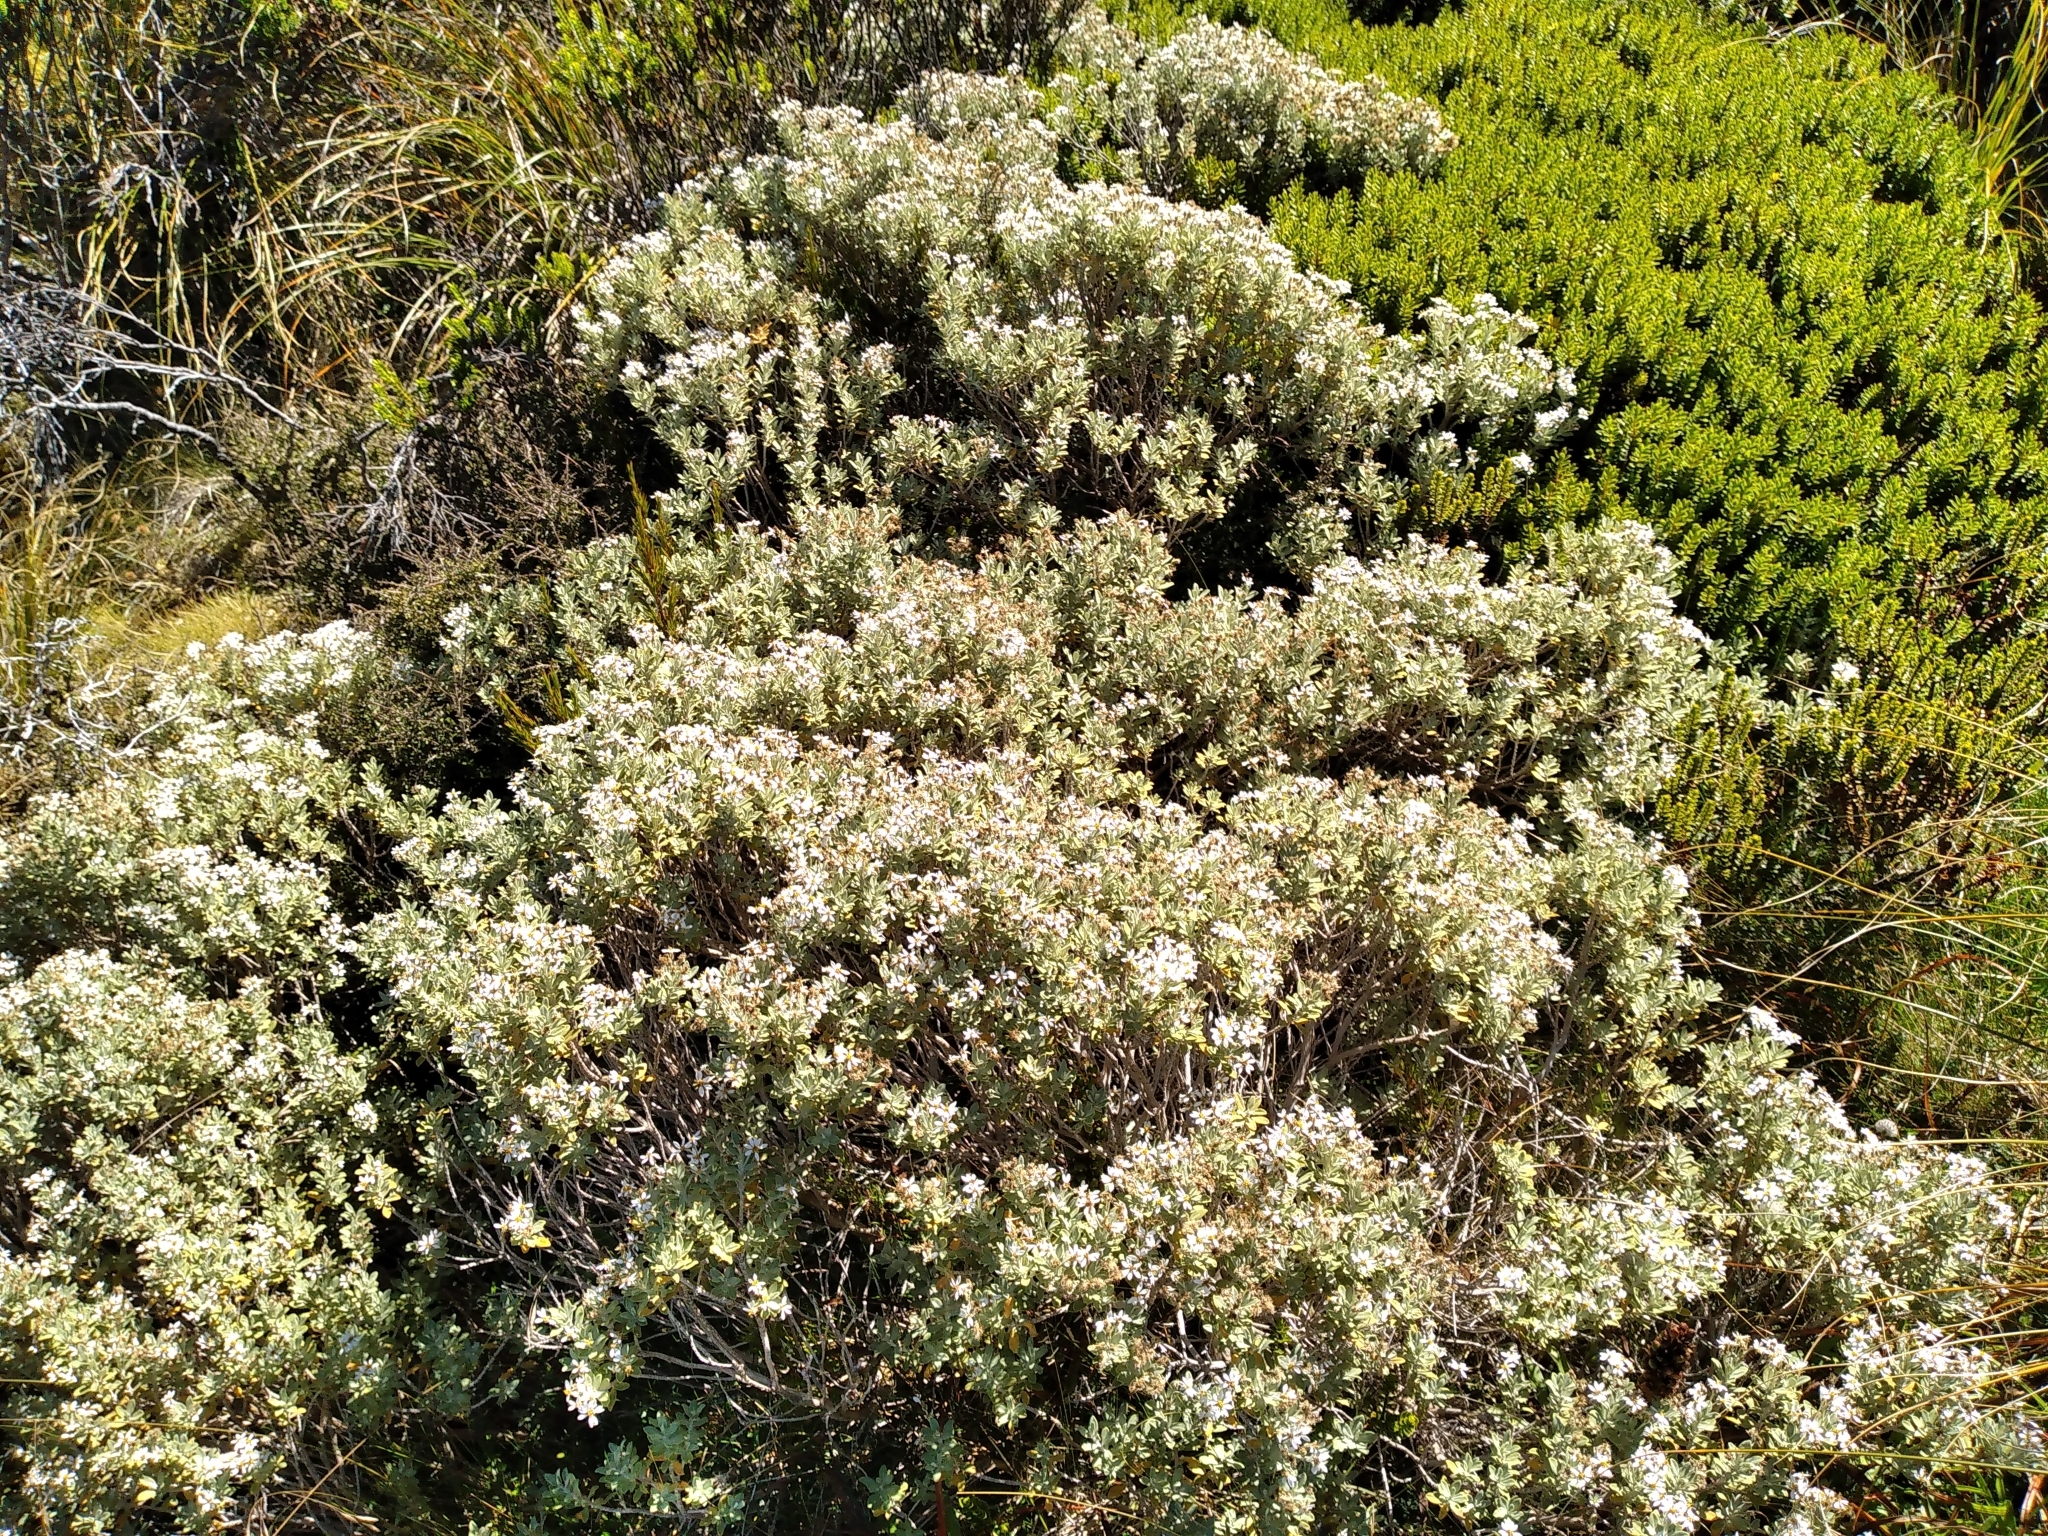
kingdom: Plantae
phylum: Tracheophyta
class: Magnoliopsida
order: Asterales
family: Asteraceae
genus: Olearia
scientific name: Olearia moschata
